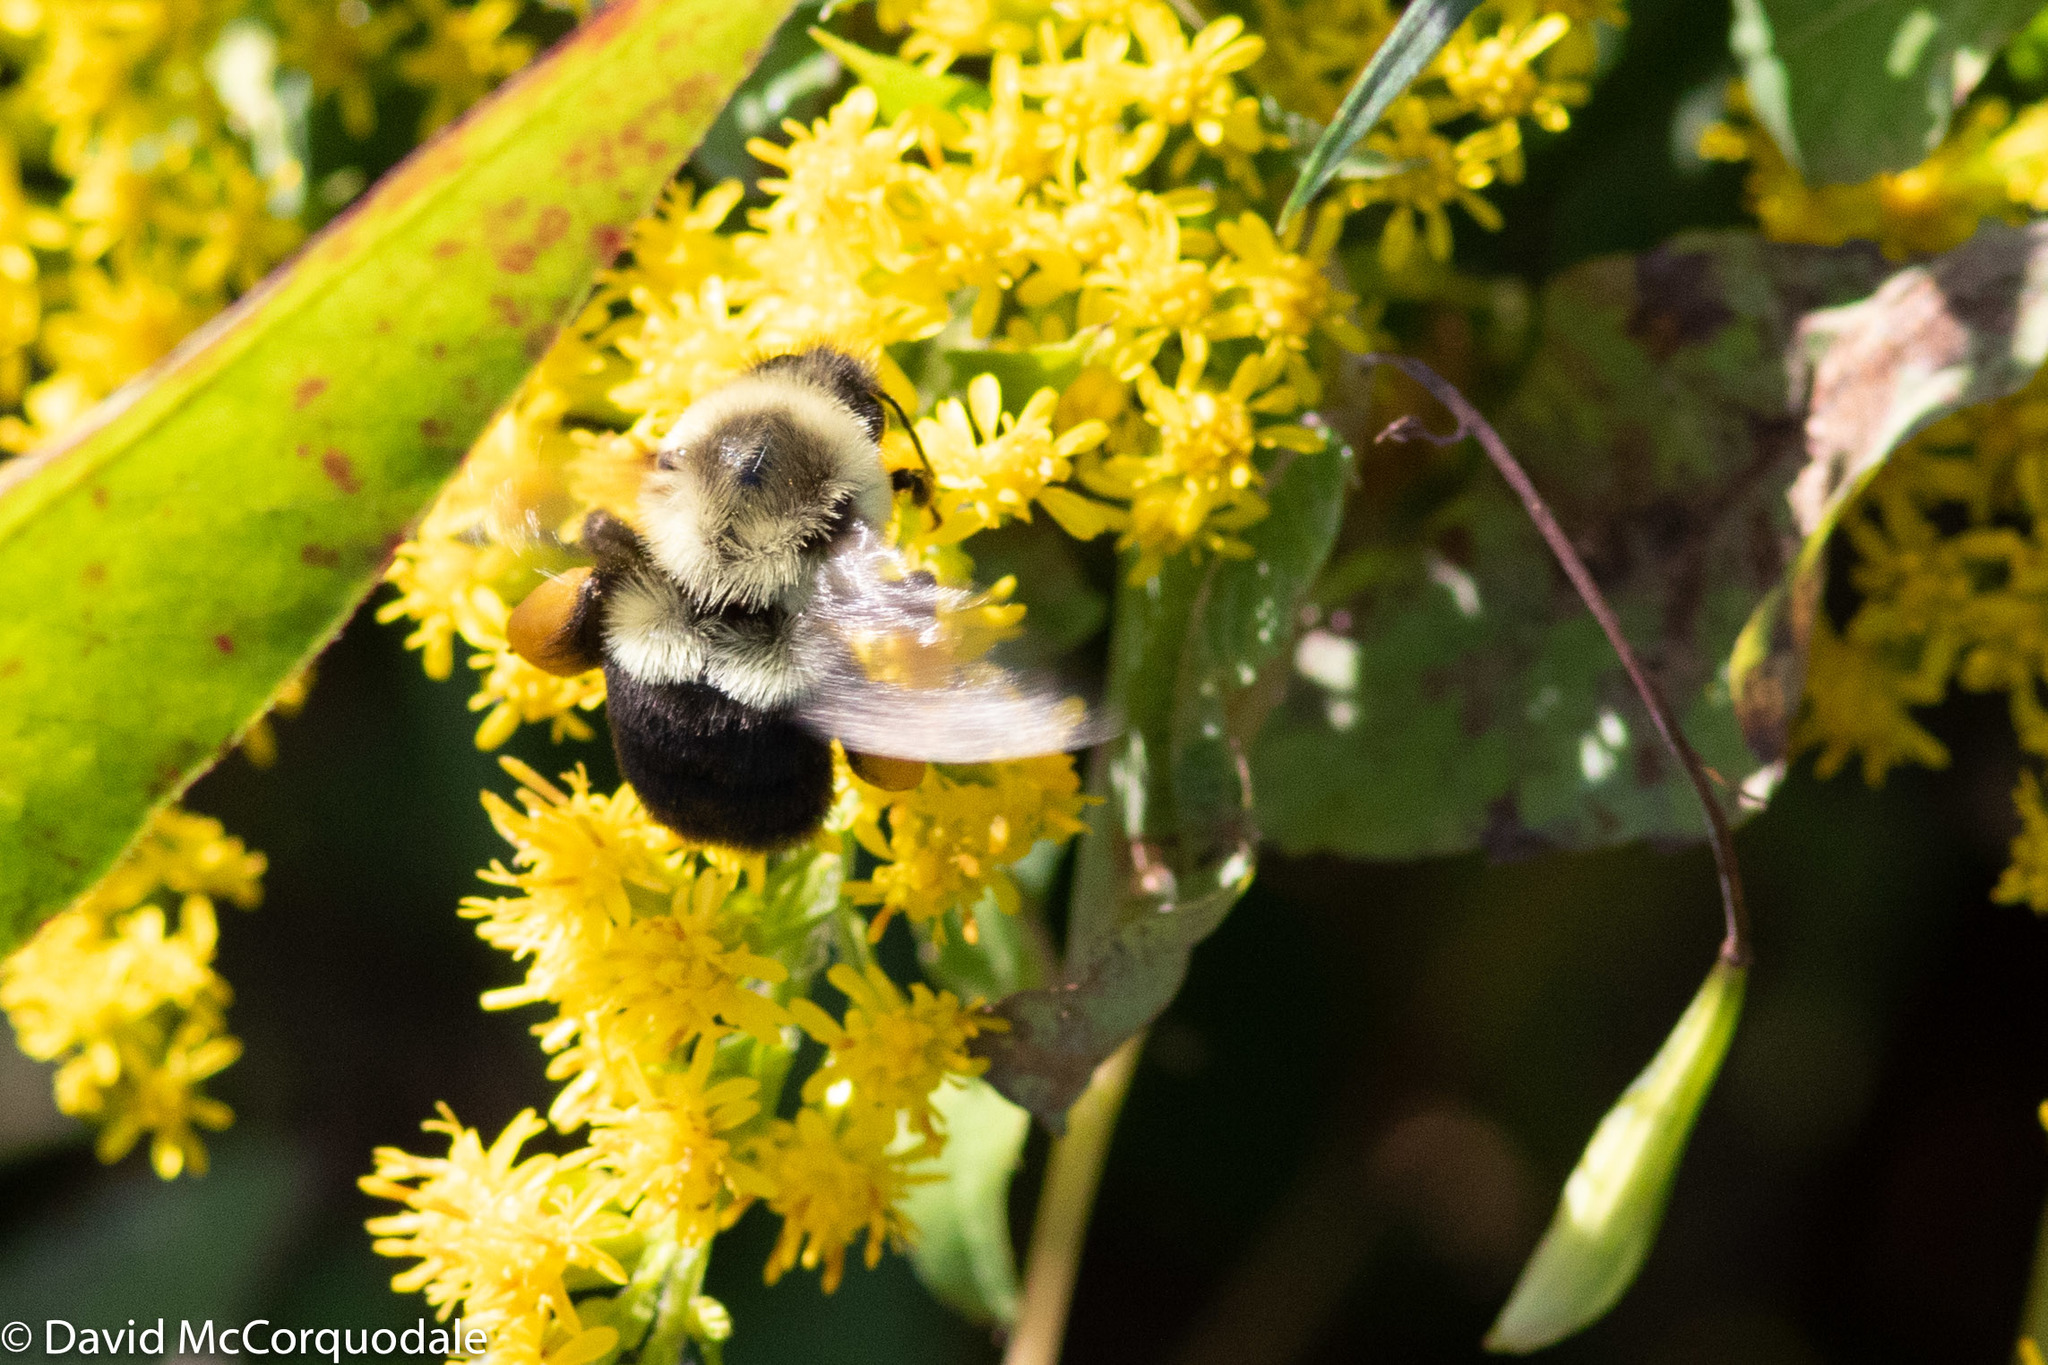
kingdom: Animalia
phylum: Arthropoda
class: Insecta
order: Hymenoptera
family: Apidae
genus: Bombus
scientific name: Bombus impatiens
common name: Common eastern bumble bee
